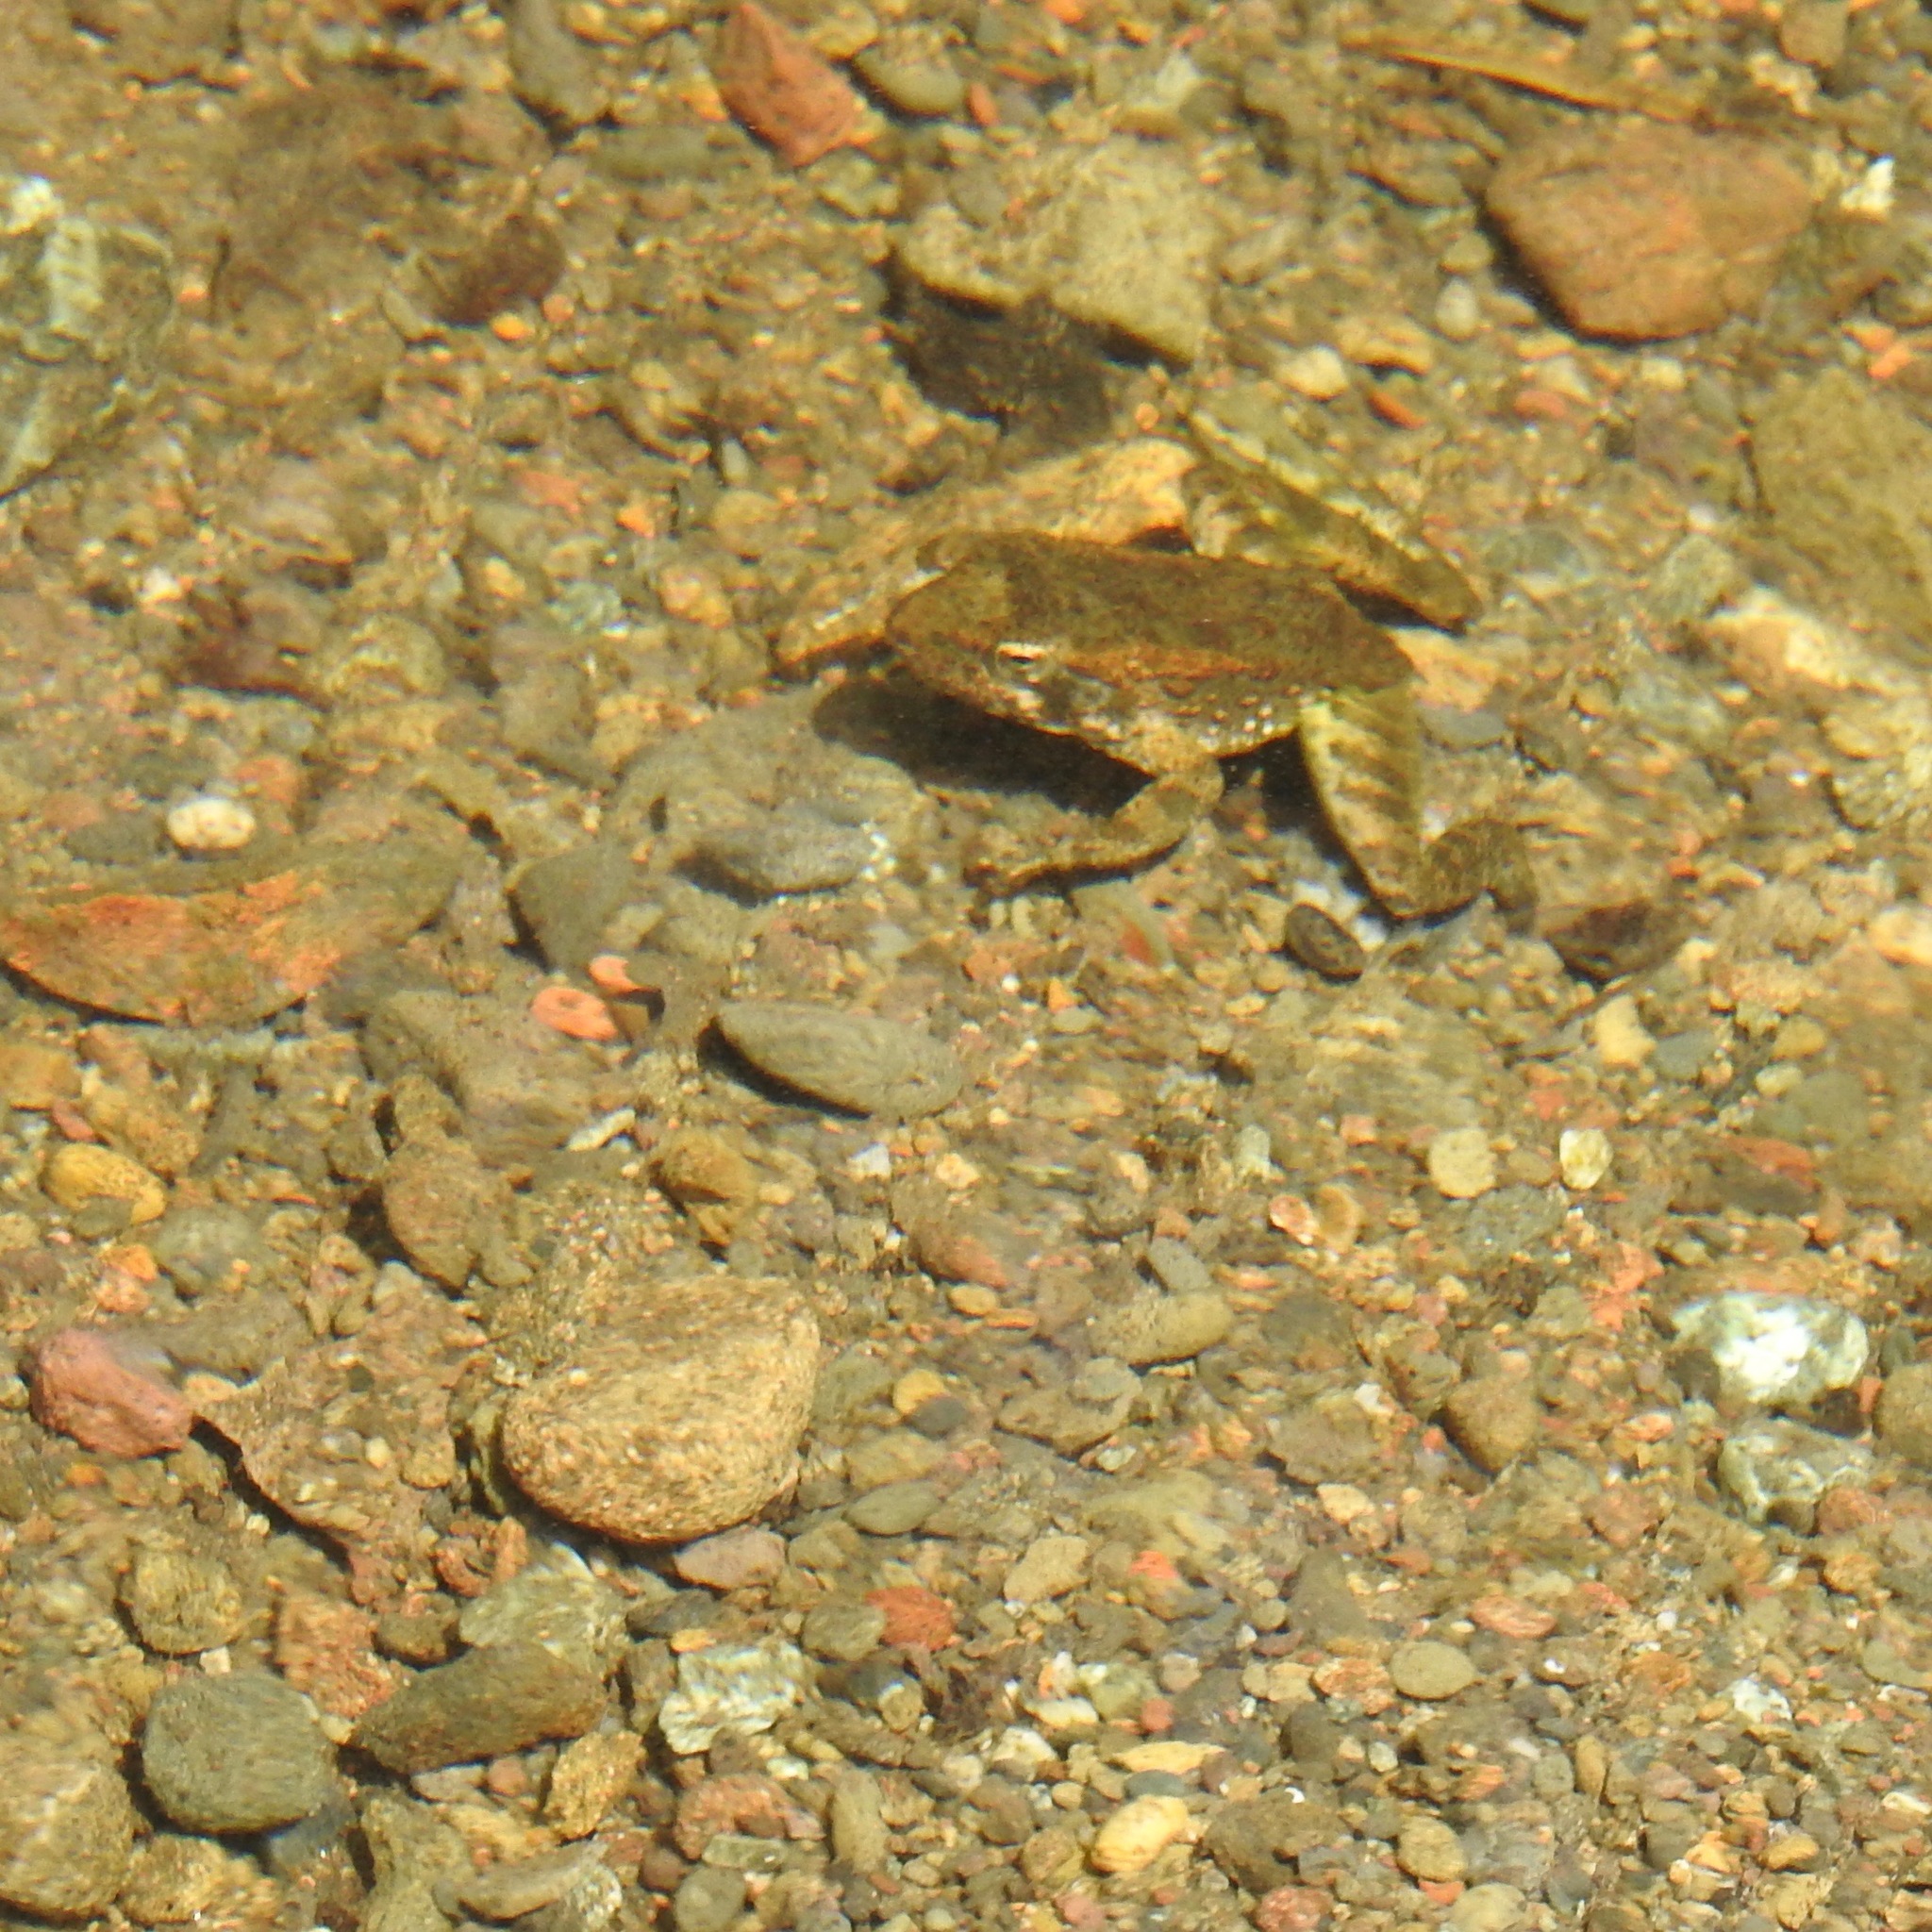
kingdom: Animalia
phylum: Chordata
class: Amphibia
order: Anura
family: Ranidae
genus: Rana
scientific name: Rana boylii
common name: Foothill yellow-legged frog
